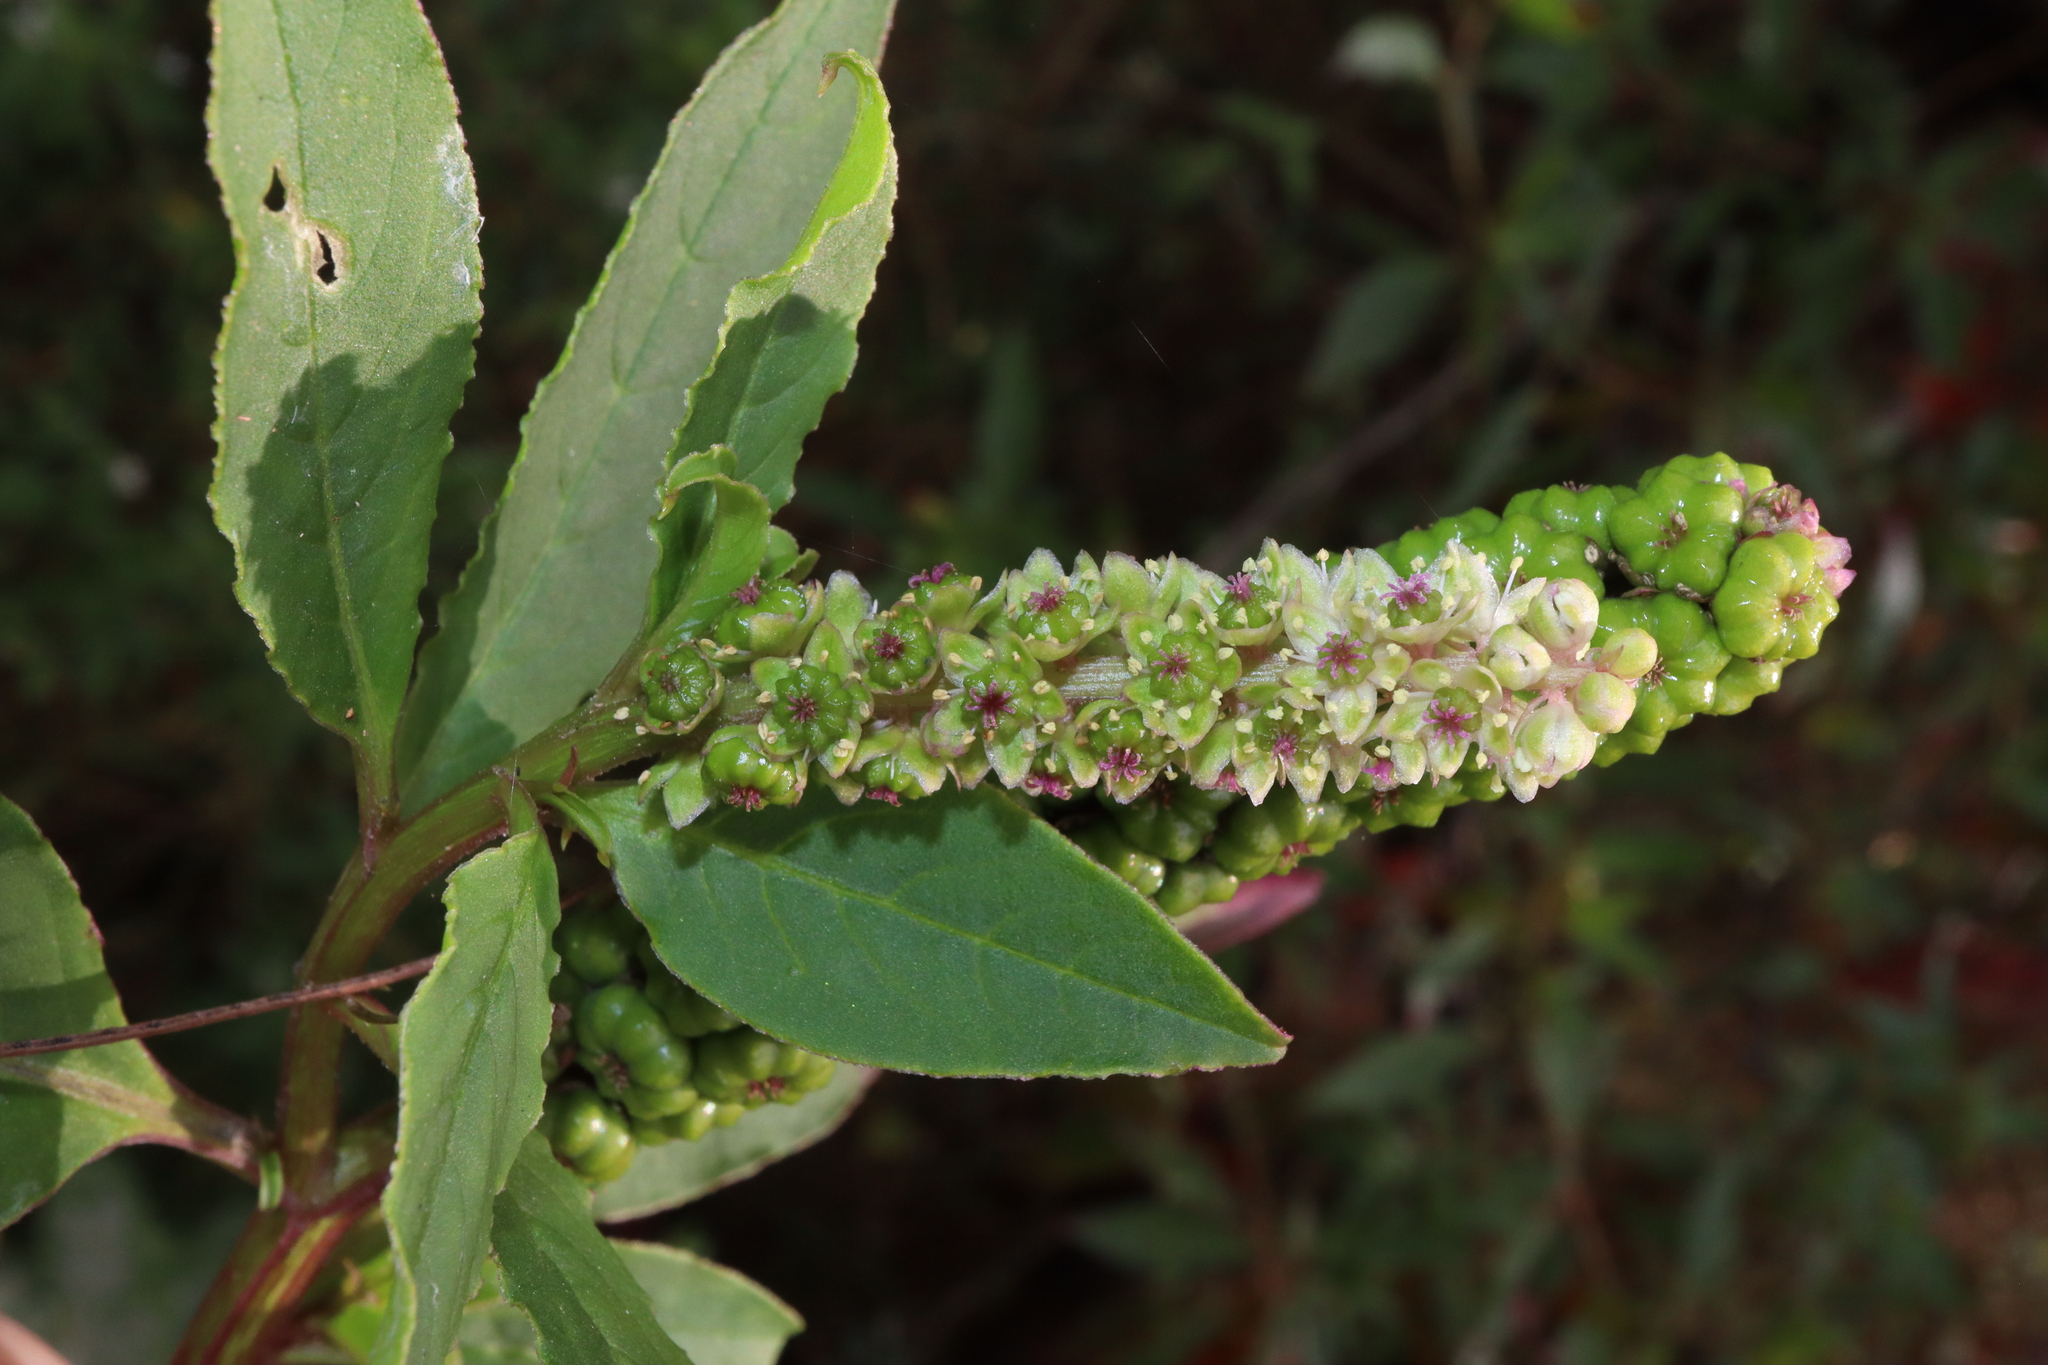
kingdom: Plantae
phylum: Tracheophyta
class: Magnoliopsida
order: Caryophyllales
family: Phytolaccaceae
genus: Phytolacca
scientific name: Phytolacca icosandra
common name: Button pokeweed
